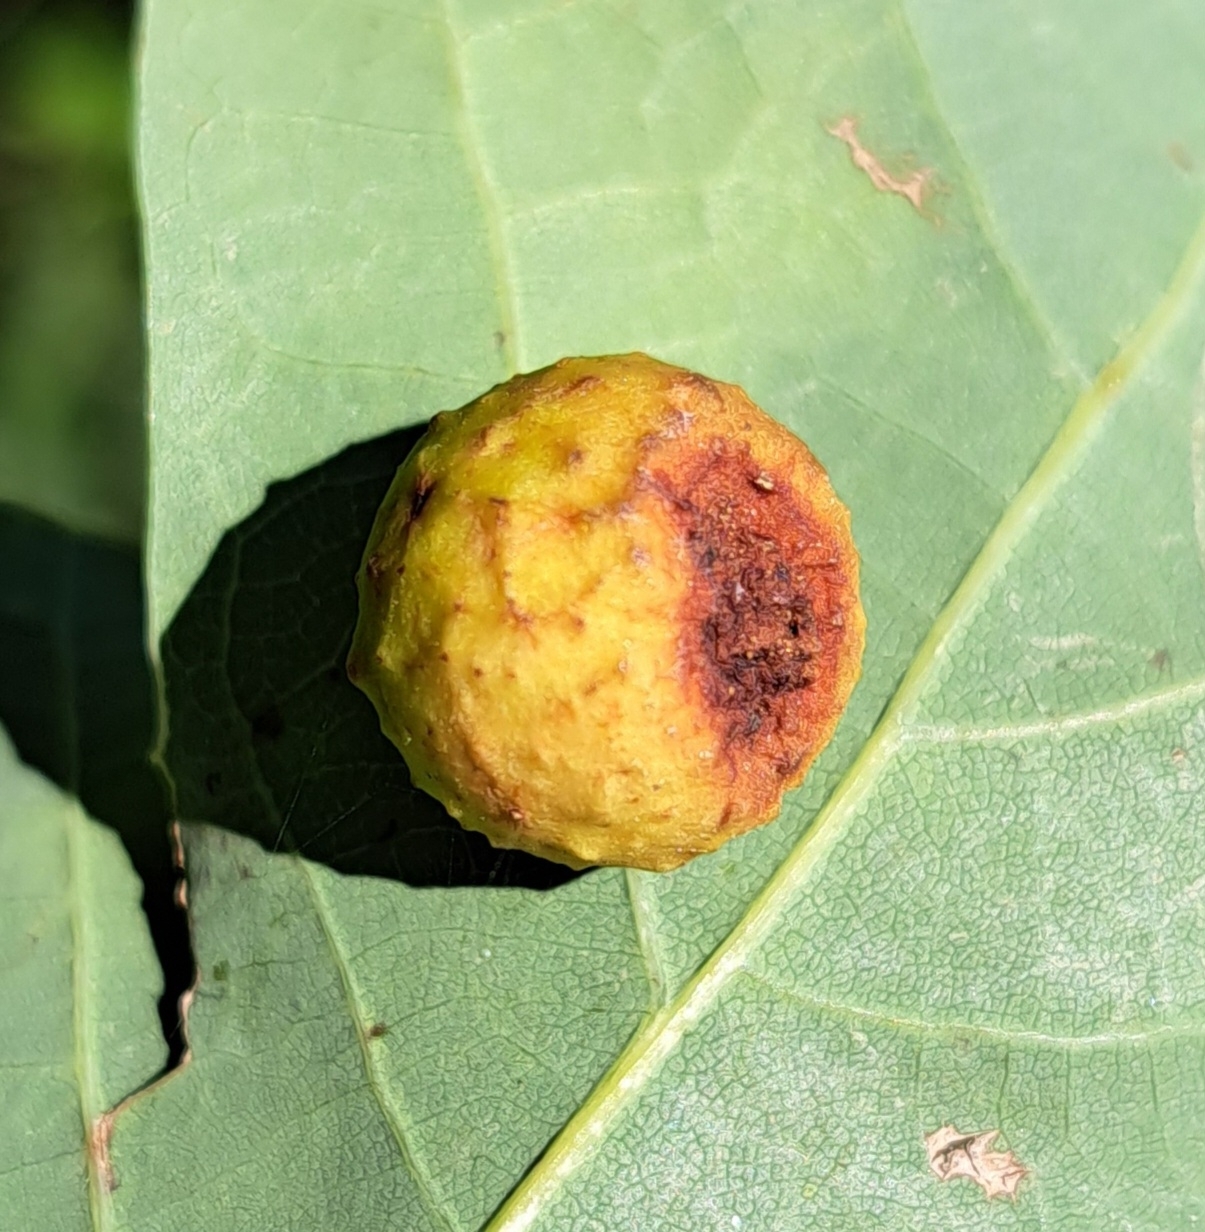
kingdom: Animalia
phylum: Arthropoda
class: Insecta
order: Hymenoptera
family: Cynipidae
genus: Cynips
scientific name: Cynips quercusfolii
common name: Cherry gall
